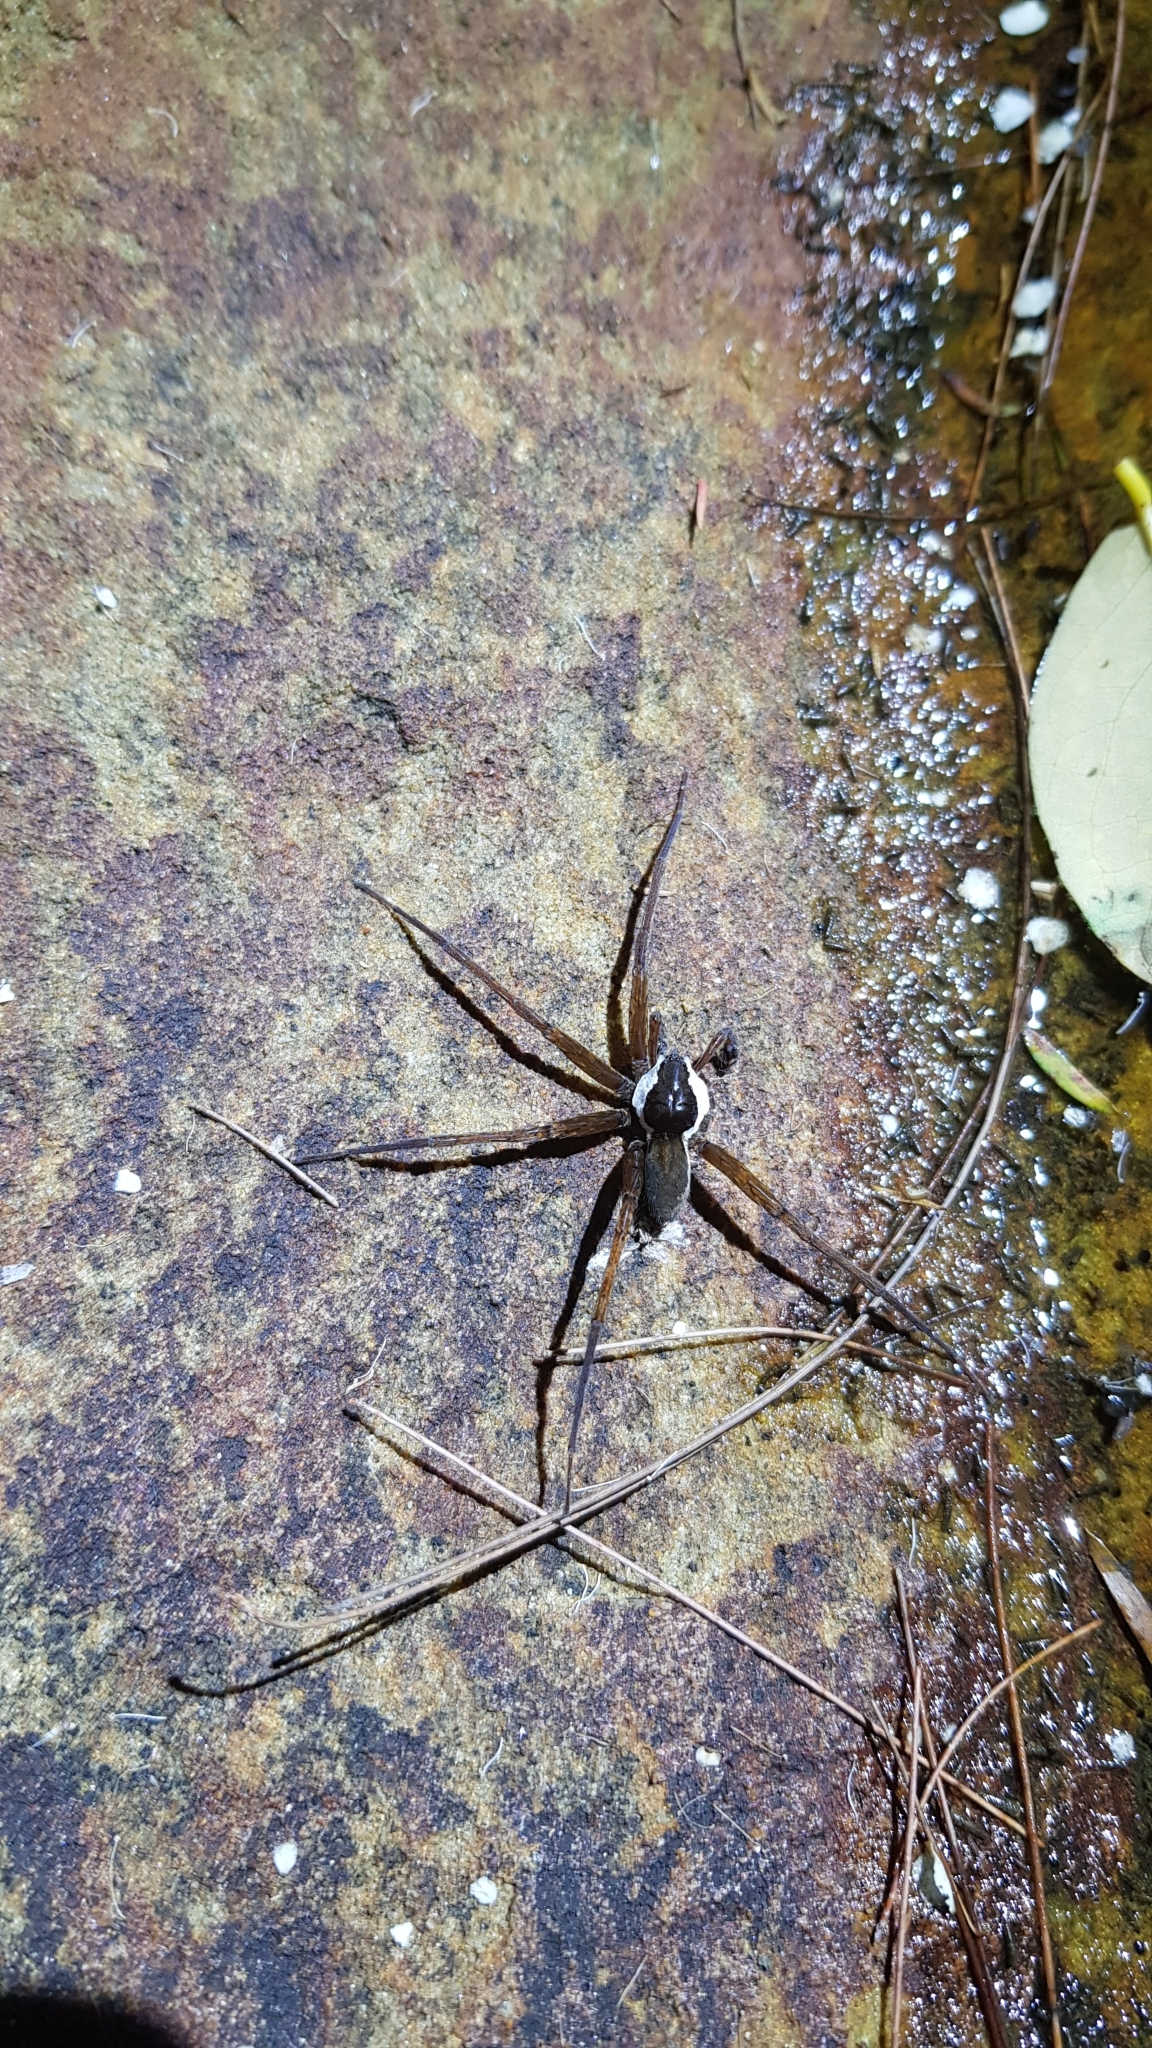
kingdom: Animalia
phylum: Arthropoda
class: Arachnida
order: Araneae
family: Pisauridae
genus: Dolomedes
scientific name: Dolomedes wollemi
